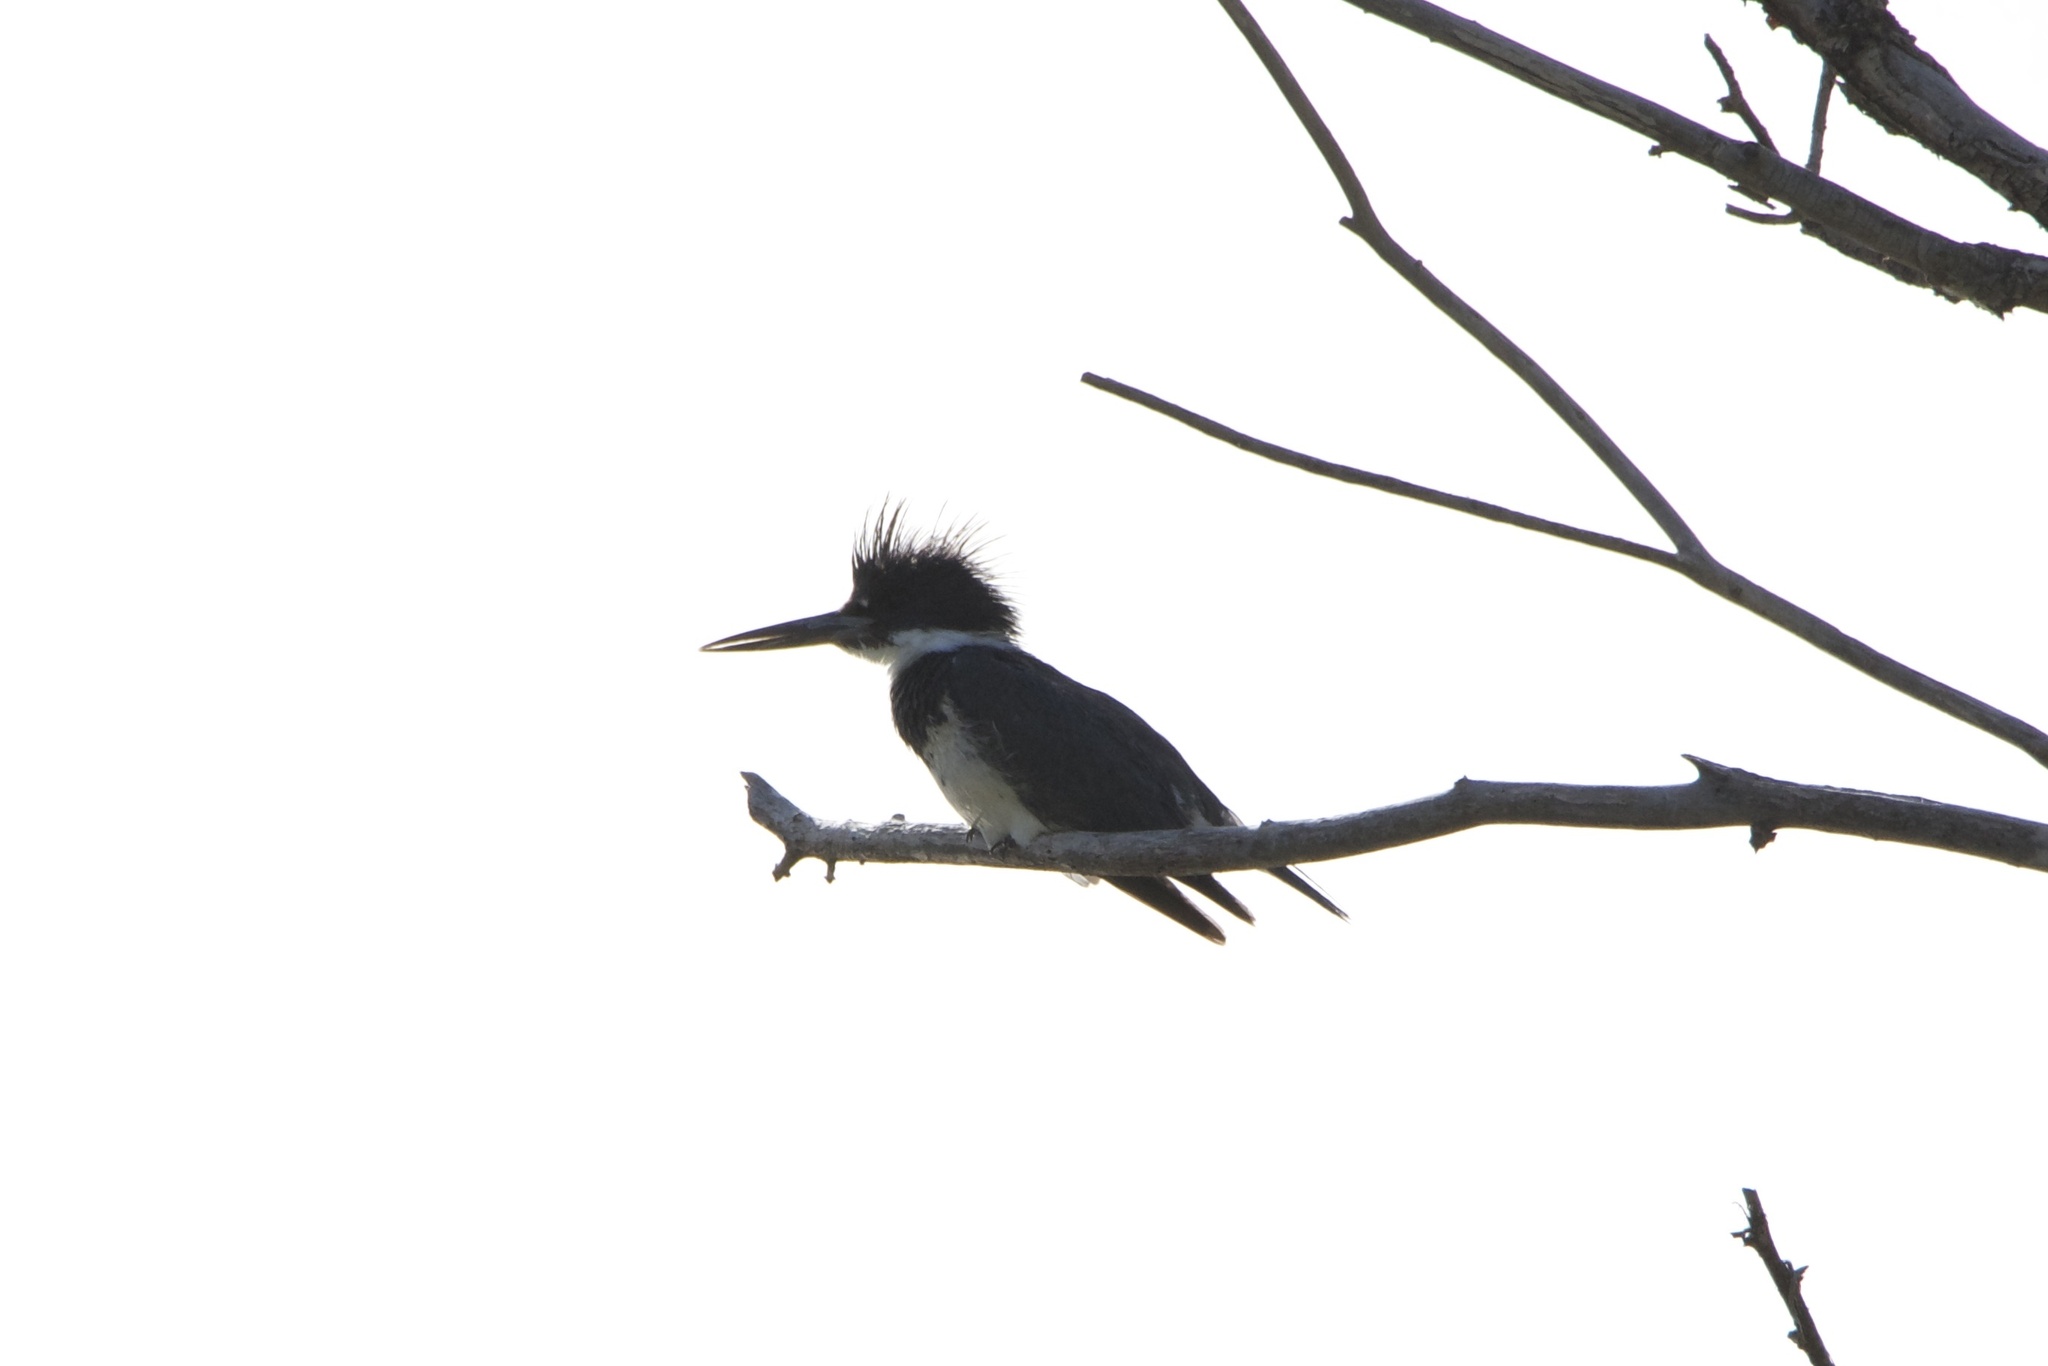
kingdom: Animalia
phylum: Chordata
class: Aves
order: Coraciiformes
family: Alcedinidae
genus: Megaceryle
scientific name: Megaceryle alcyon
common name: Belted kingfisher
